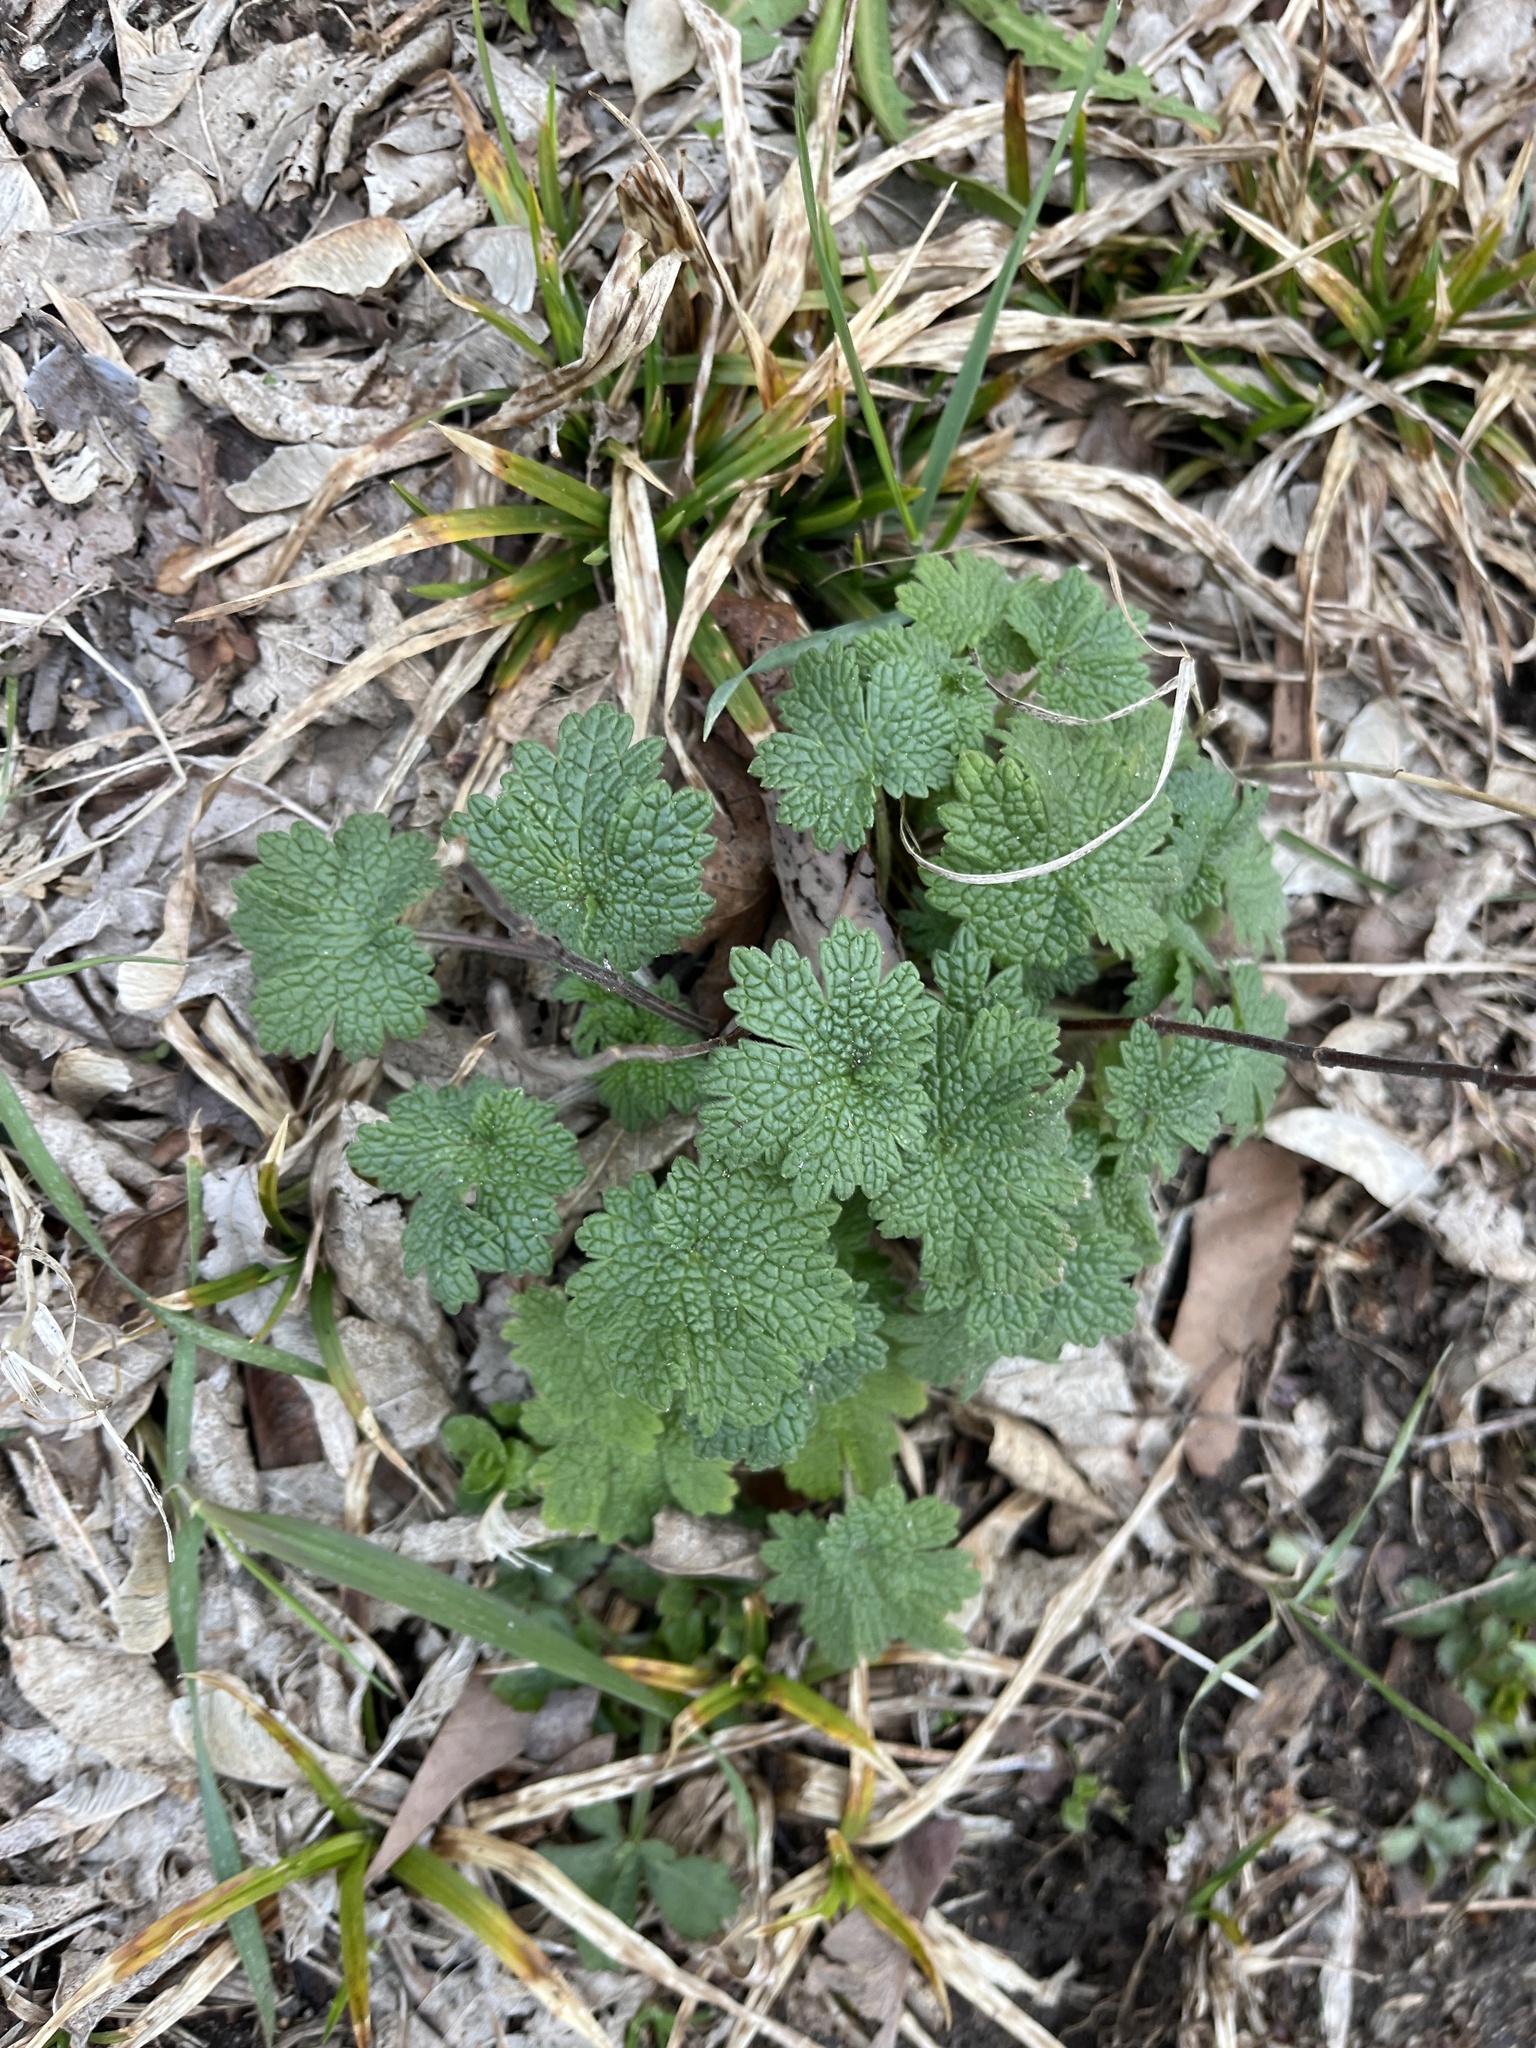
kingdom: Plantae
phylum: Tracheophyta
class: Magnoliopsida
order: Lamiales
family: Lamiaceae
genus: Leonurus
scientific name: Leonurus cardiaca
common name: Motherwort
